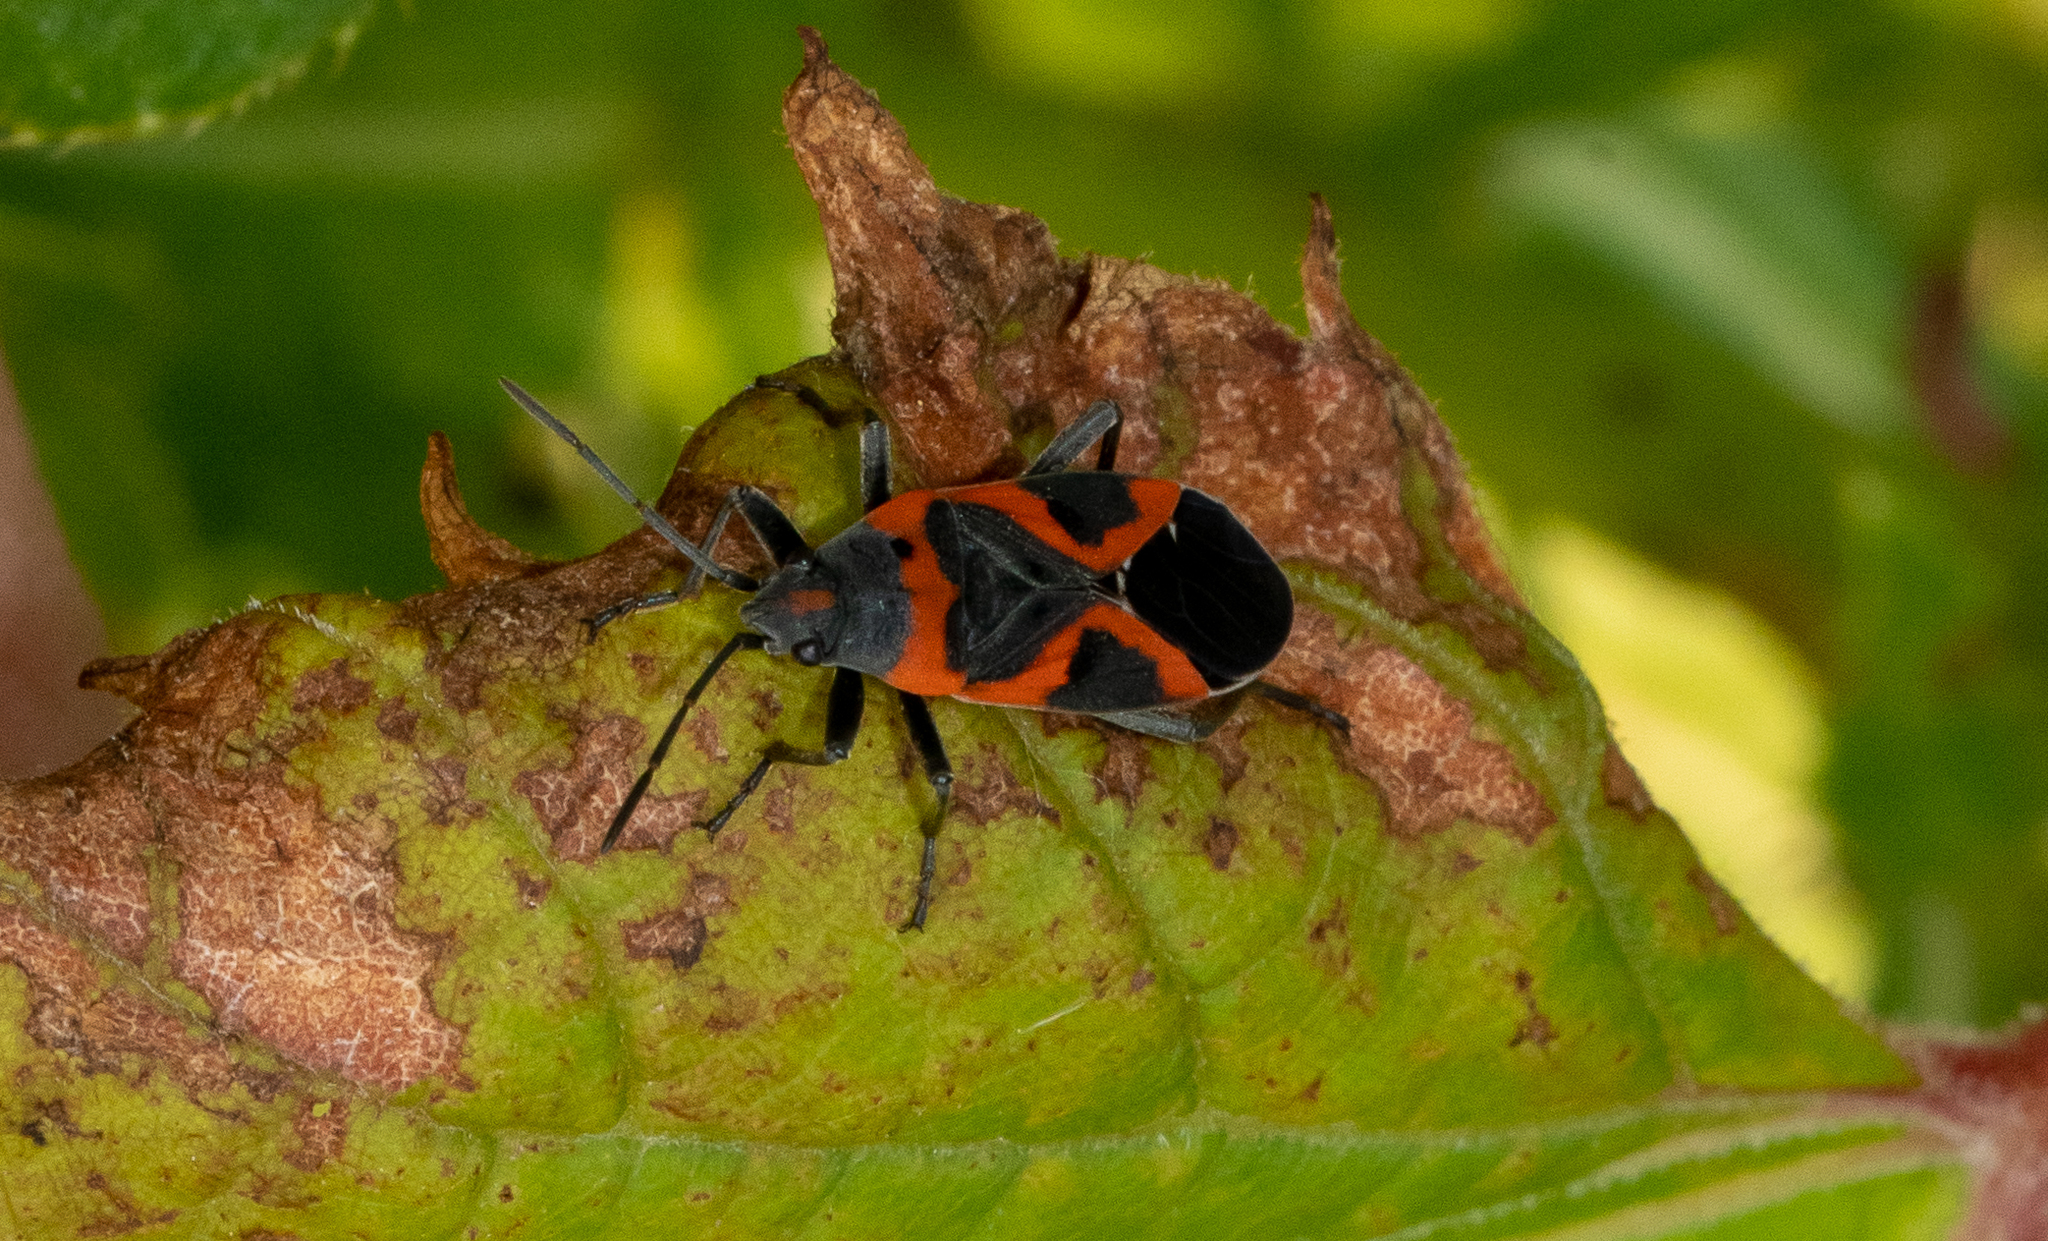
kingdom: Animalia
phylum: Arthropoda
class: Insecta
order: Hemiptera
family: Lygaeidae
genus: Lygaeus
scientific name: Lygaeus kalmii
